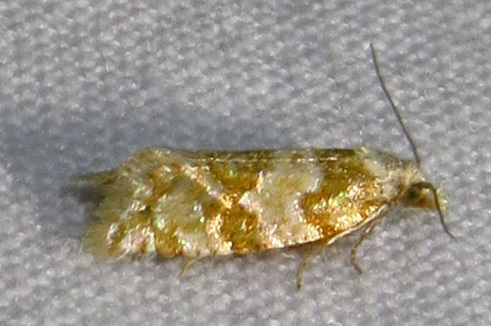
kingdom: Animalia
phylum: Arthropoda
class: Insecta
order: Lepidoptera
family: Tortricidae
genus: Aethes
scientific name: Aethes argentilimitana
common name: Silver-bordered aethes
